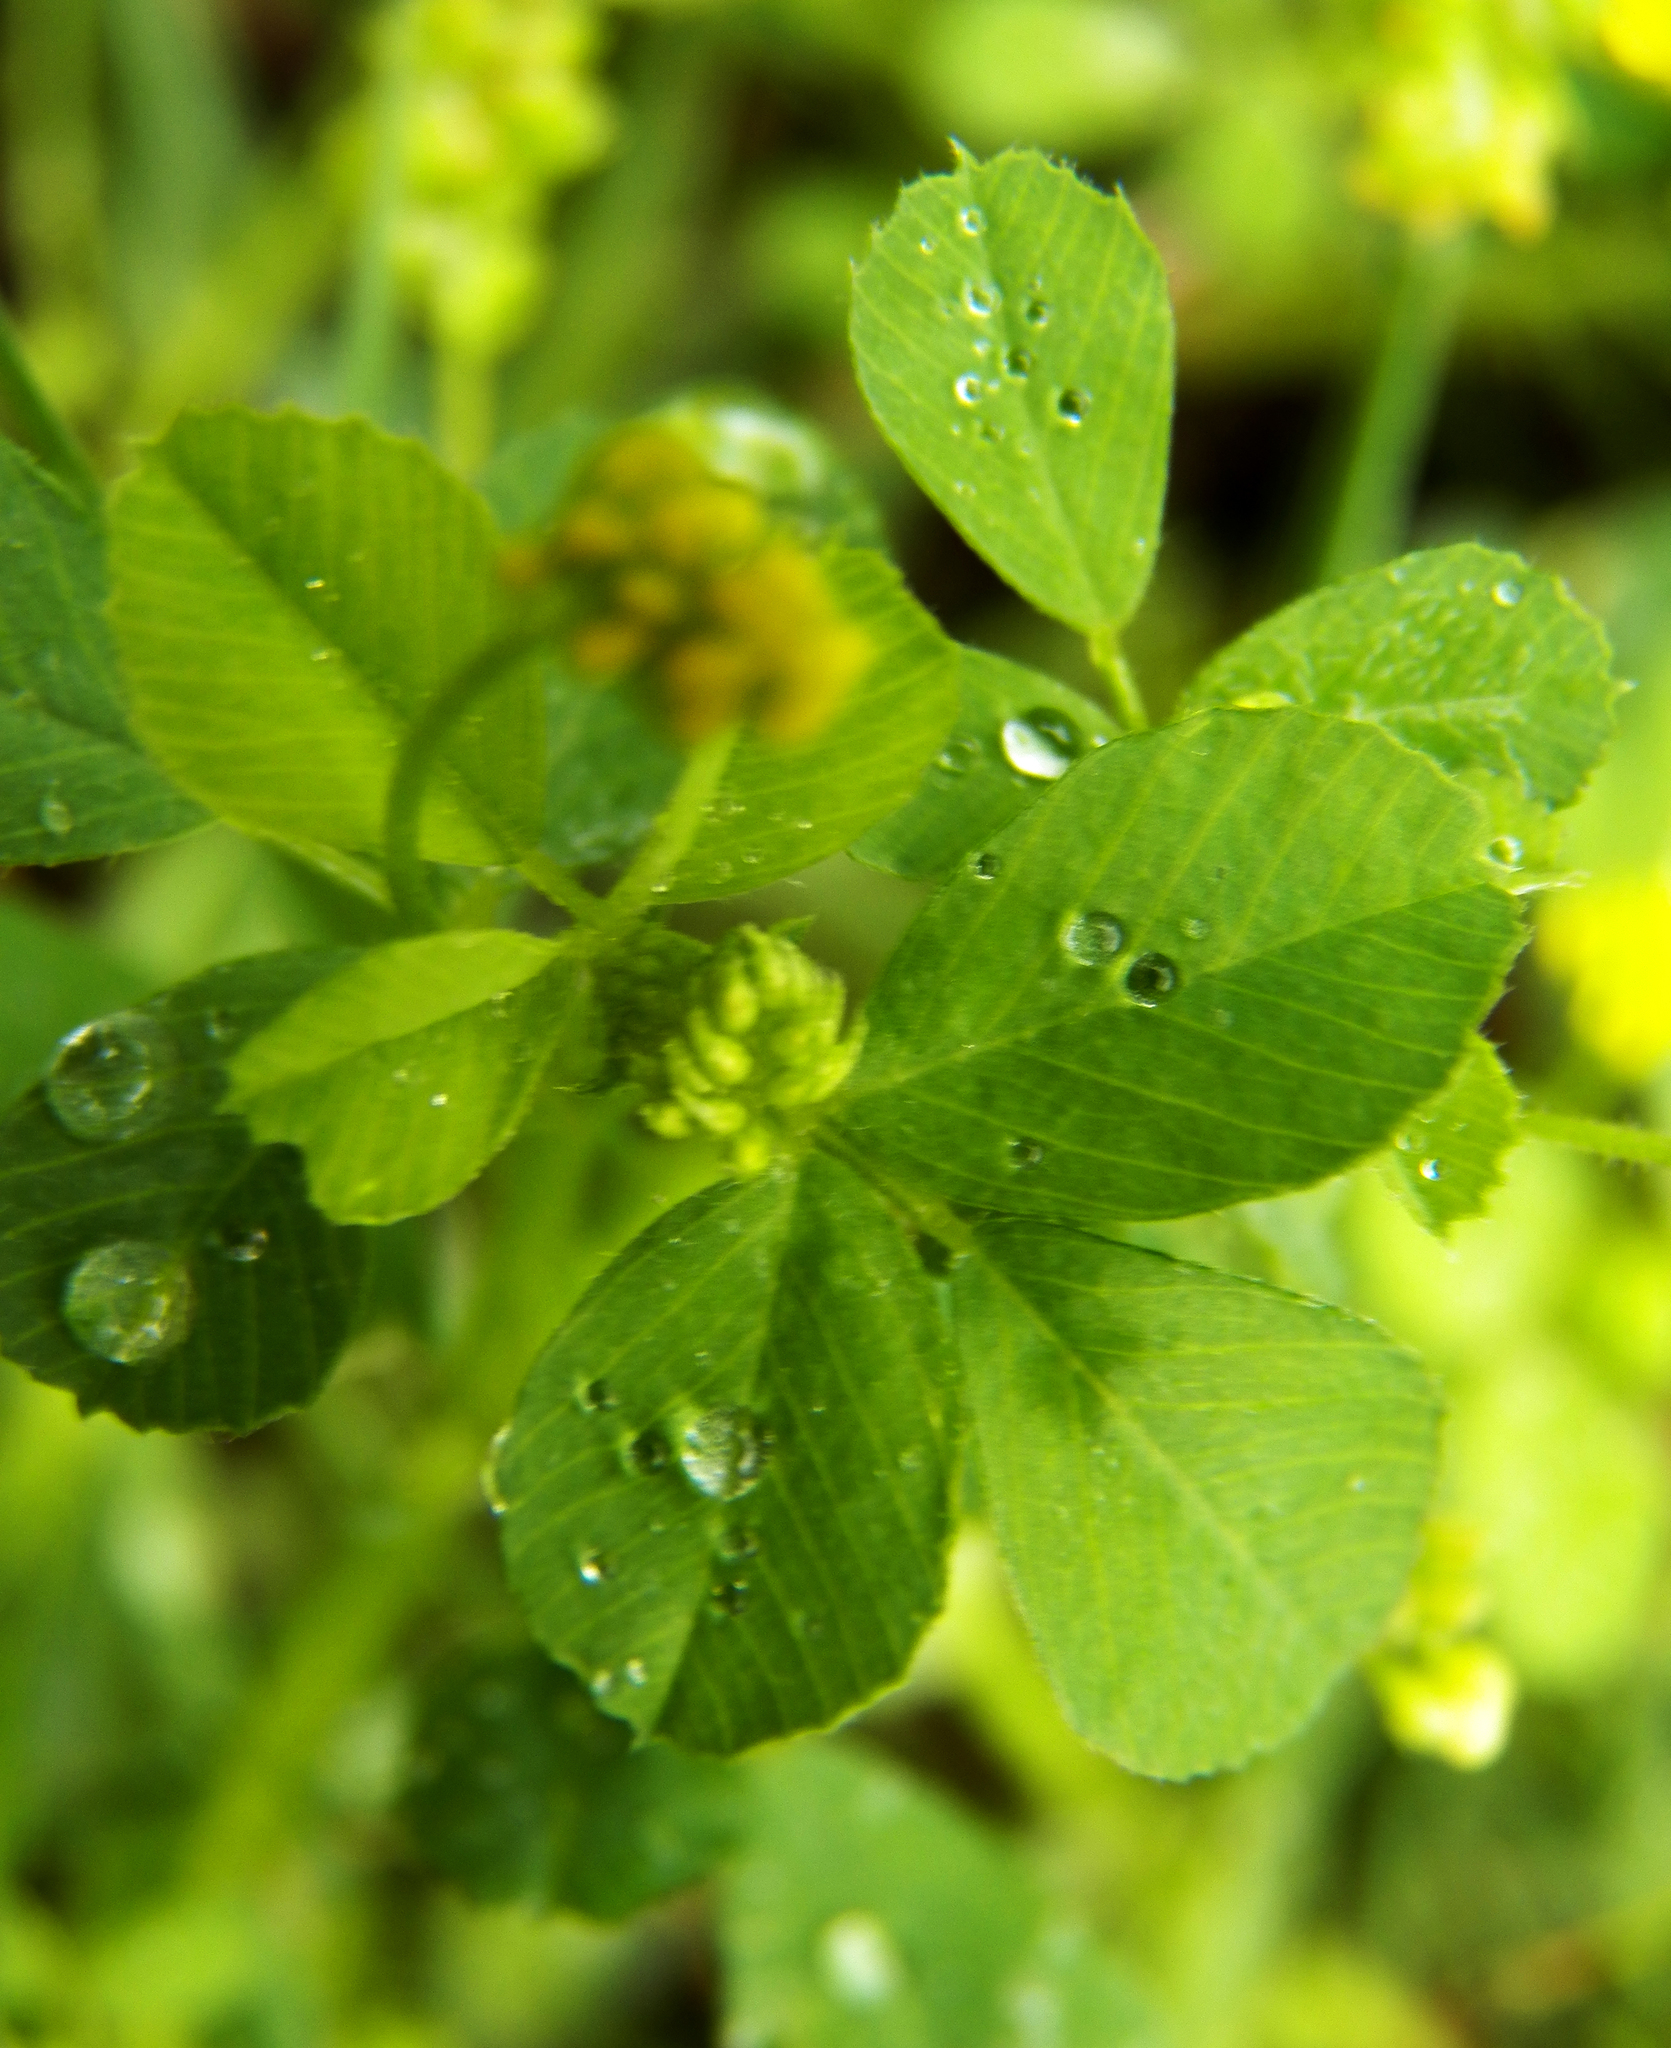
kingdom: Plantae
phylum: Tracheophyta
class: Magnoliopsida
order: Fabales
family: Fabaceae
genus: Medicago
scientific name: Medicago lupulina
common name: Black medick
